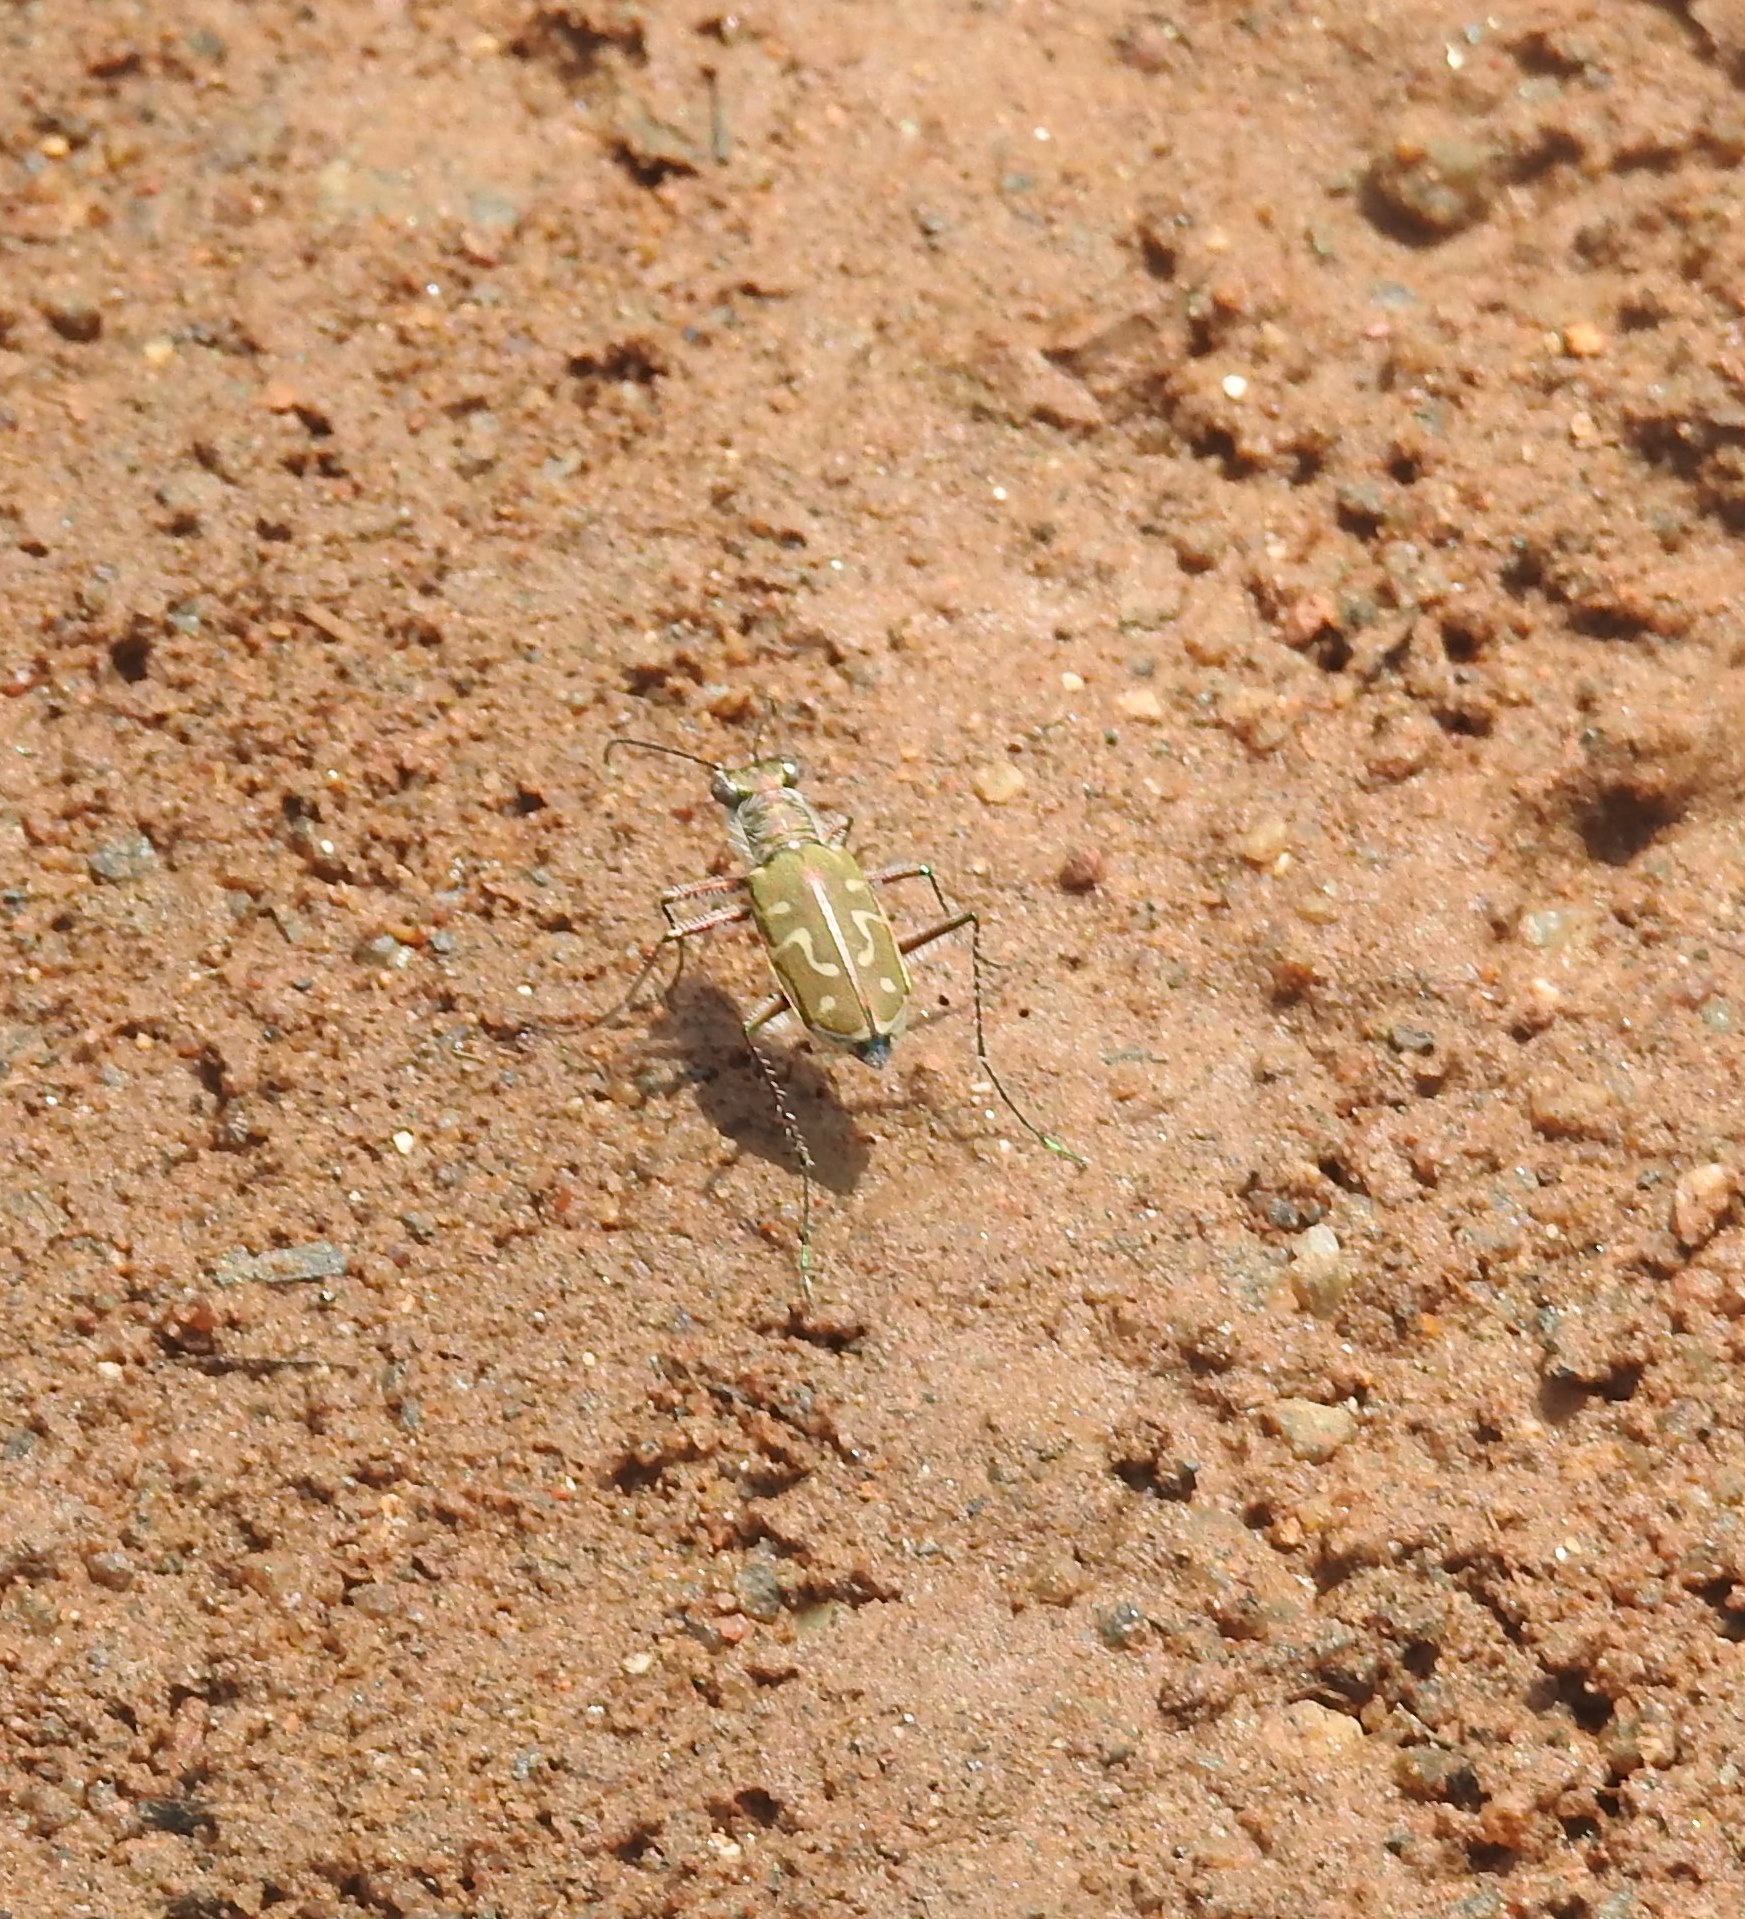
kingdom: Animalia
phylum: Arthropoda
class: Insecta
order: Coleoptera
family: Carabidae
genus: Cicindela
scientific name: Cicindela angulata
